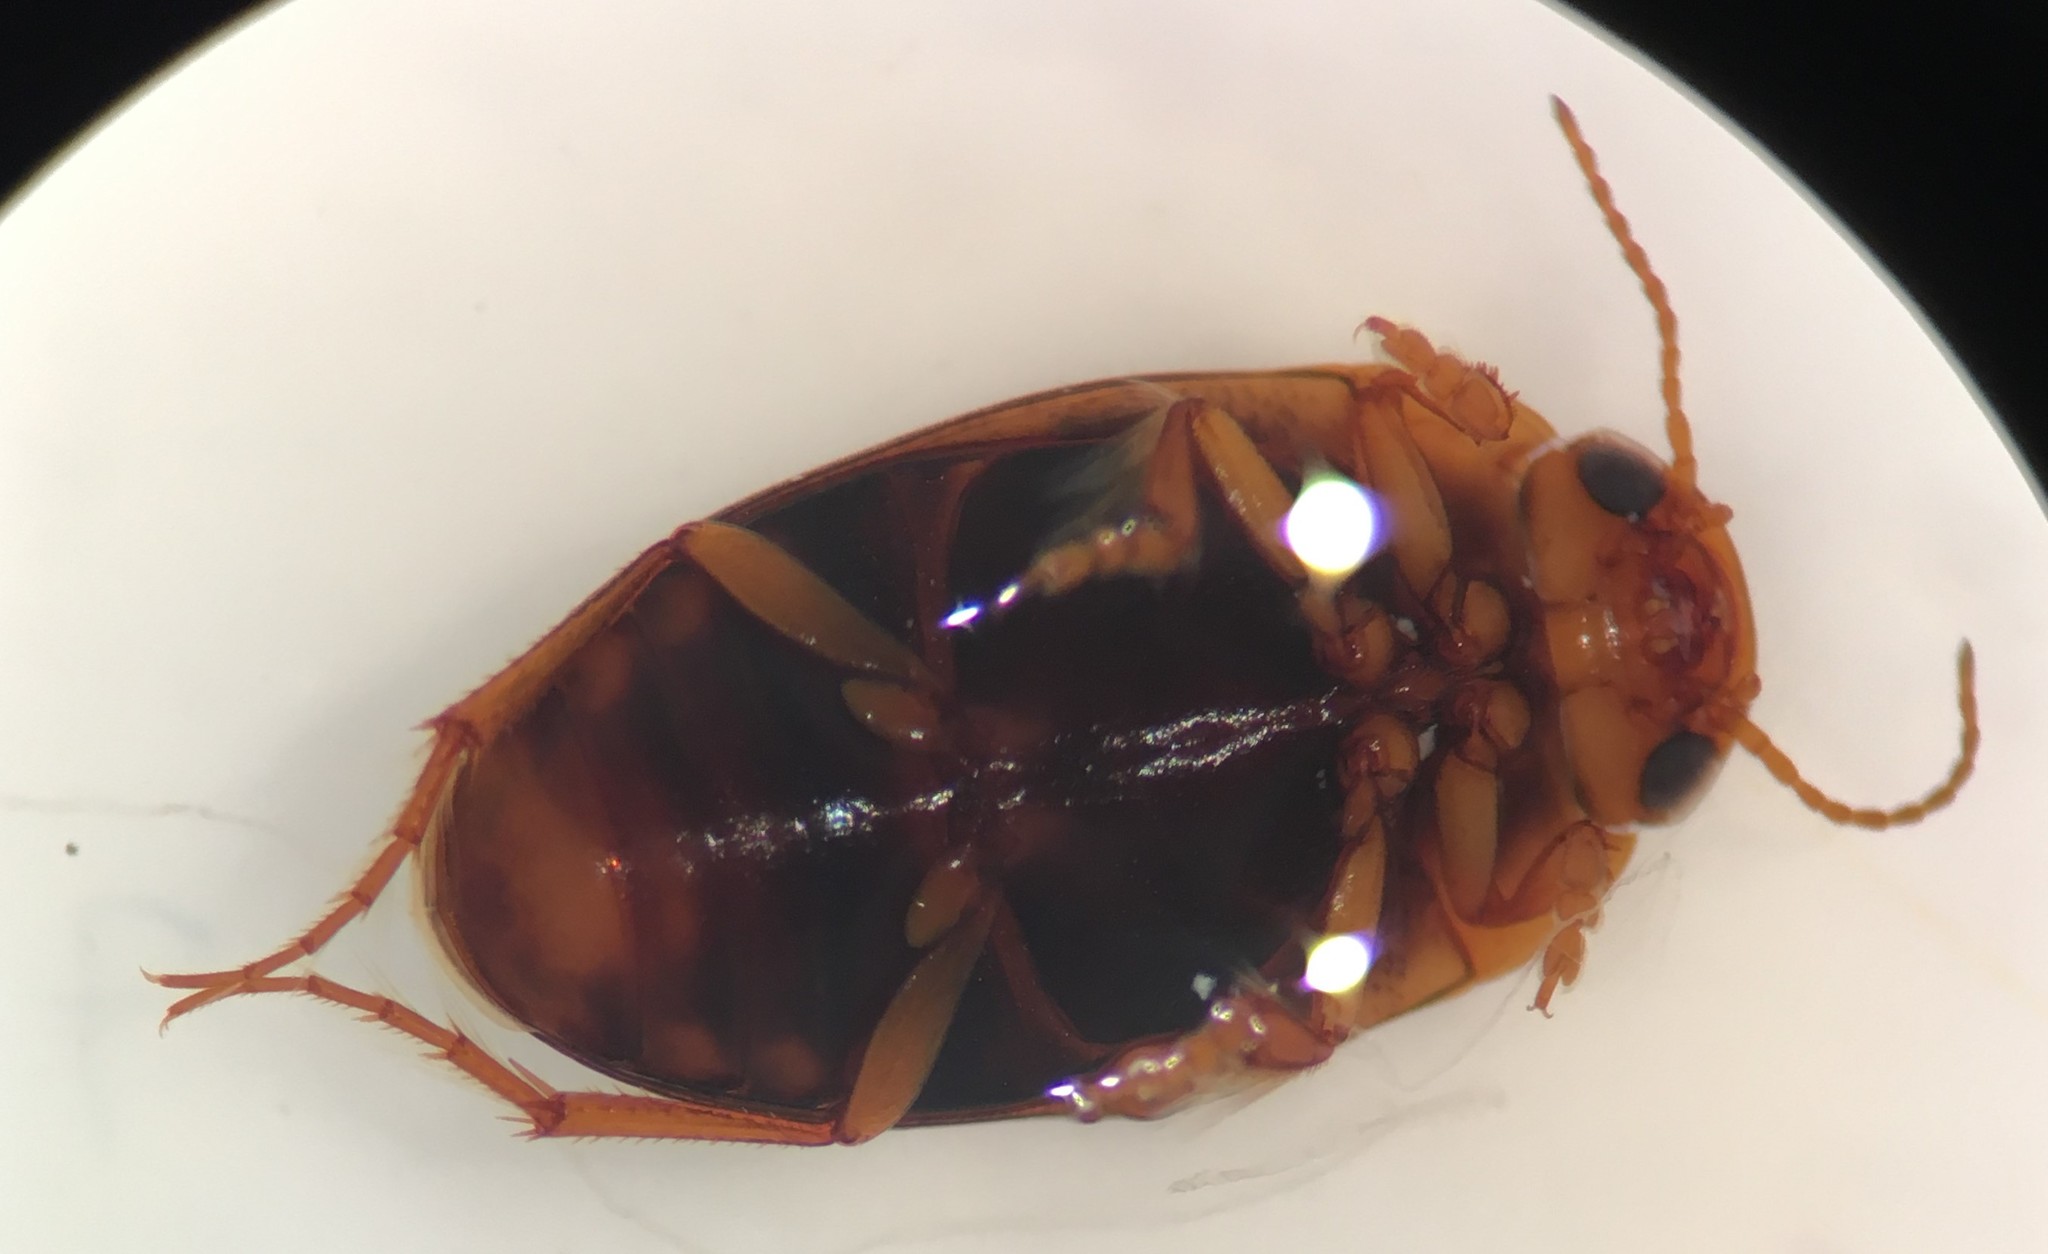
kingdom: Animalia
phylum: Arthropoda
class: Insecta
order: Coleoptera
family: Dytiscidae
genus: Hydrocolus
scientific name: Hydrocolus deflatus
